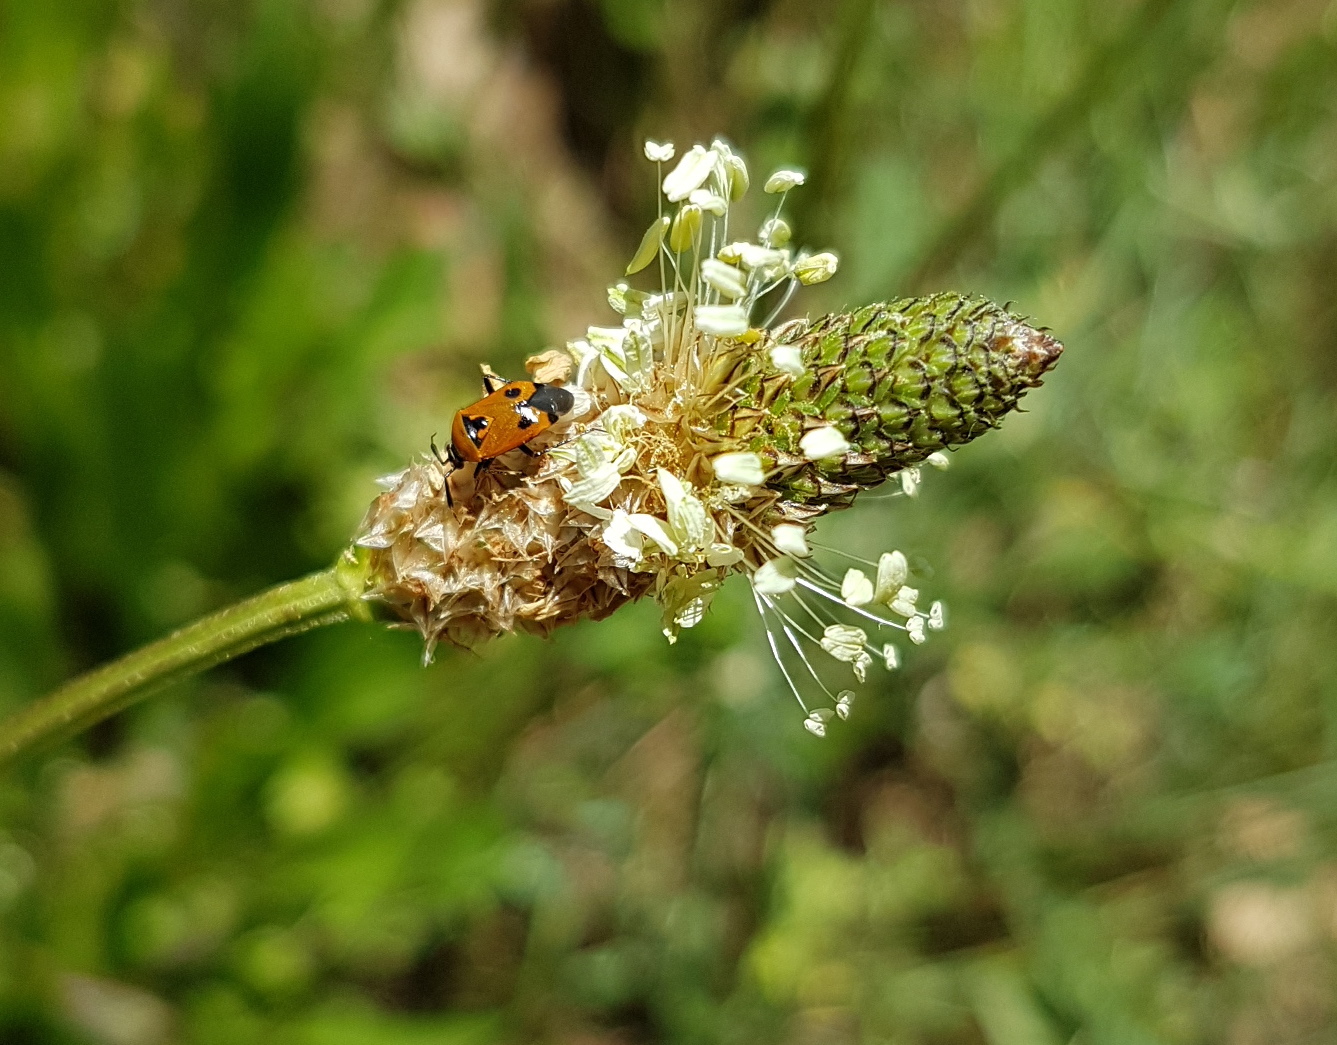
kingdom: Animalia
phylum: Arthropoda
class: Insecta
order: Hemiptera
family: Miridae
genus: Deraeocoris
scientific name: Deraeocoris punctum
